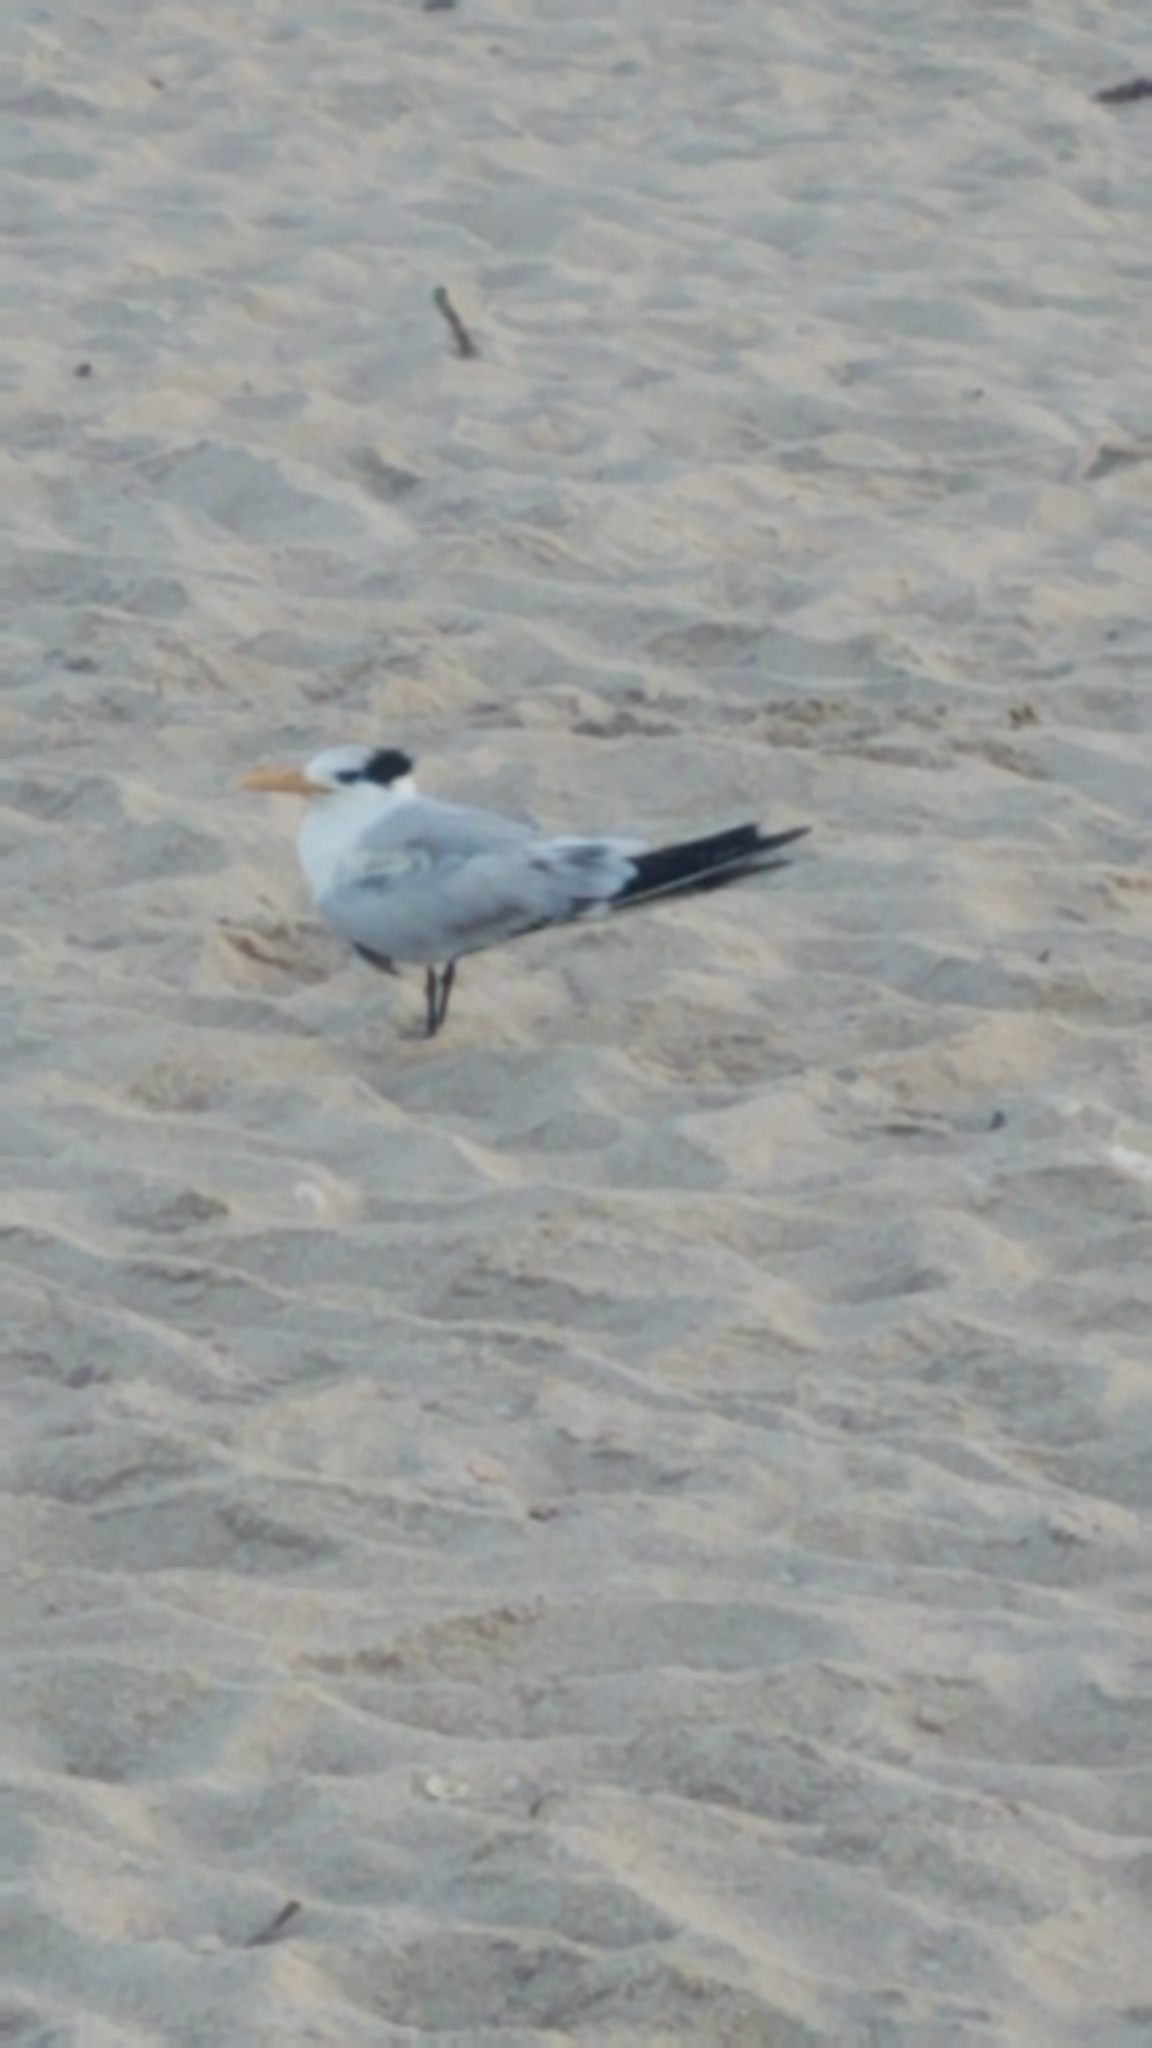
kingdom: Animalia
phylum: Chordata
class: Aves
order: Charadriiformes
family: Laridae
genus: Thalasseus
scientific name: Thalasseus maximus
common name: Royal tern
